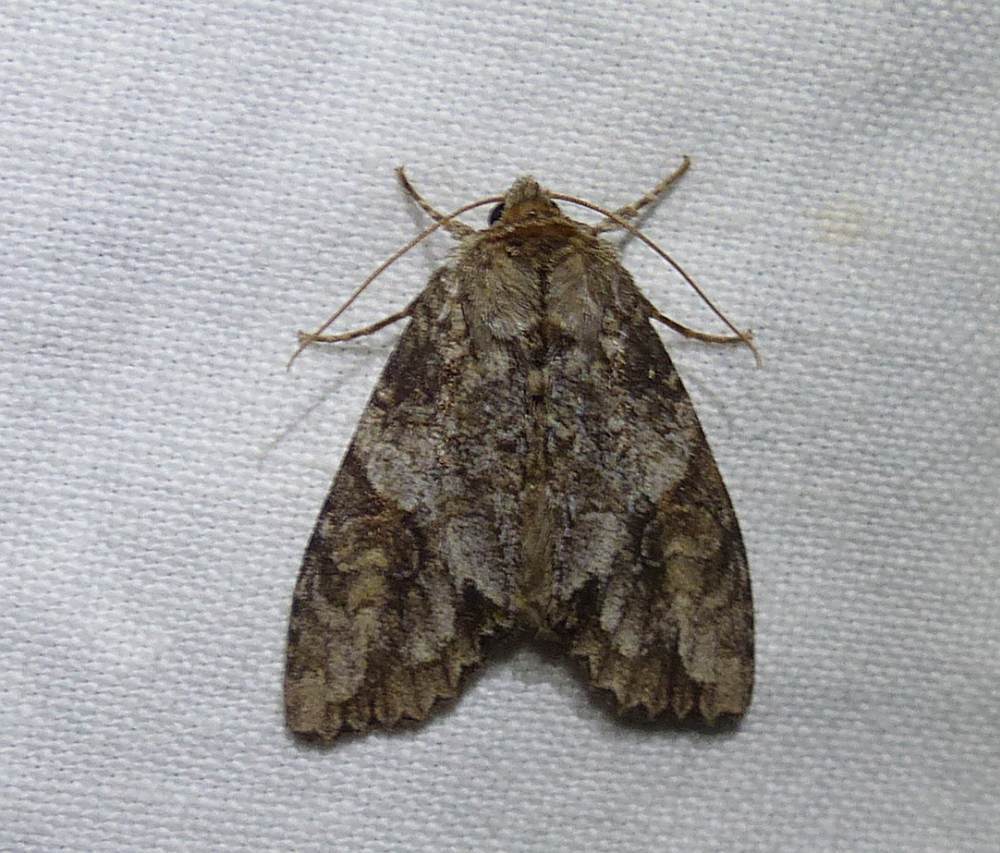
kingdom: Animalia
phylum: Arthropoda
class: Insecta
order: Lepidoptera
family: Noctuidae
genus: Achatia
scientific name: Achatia latex
